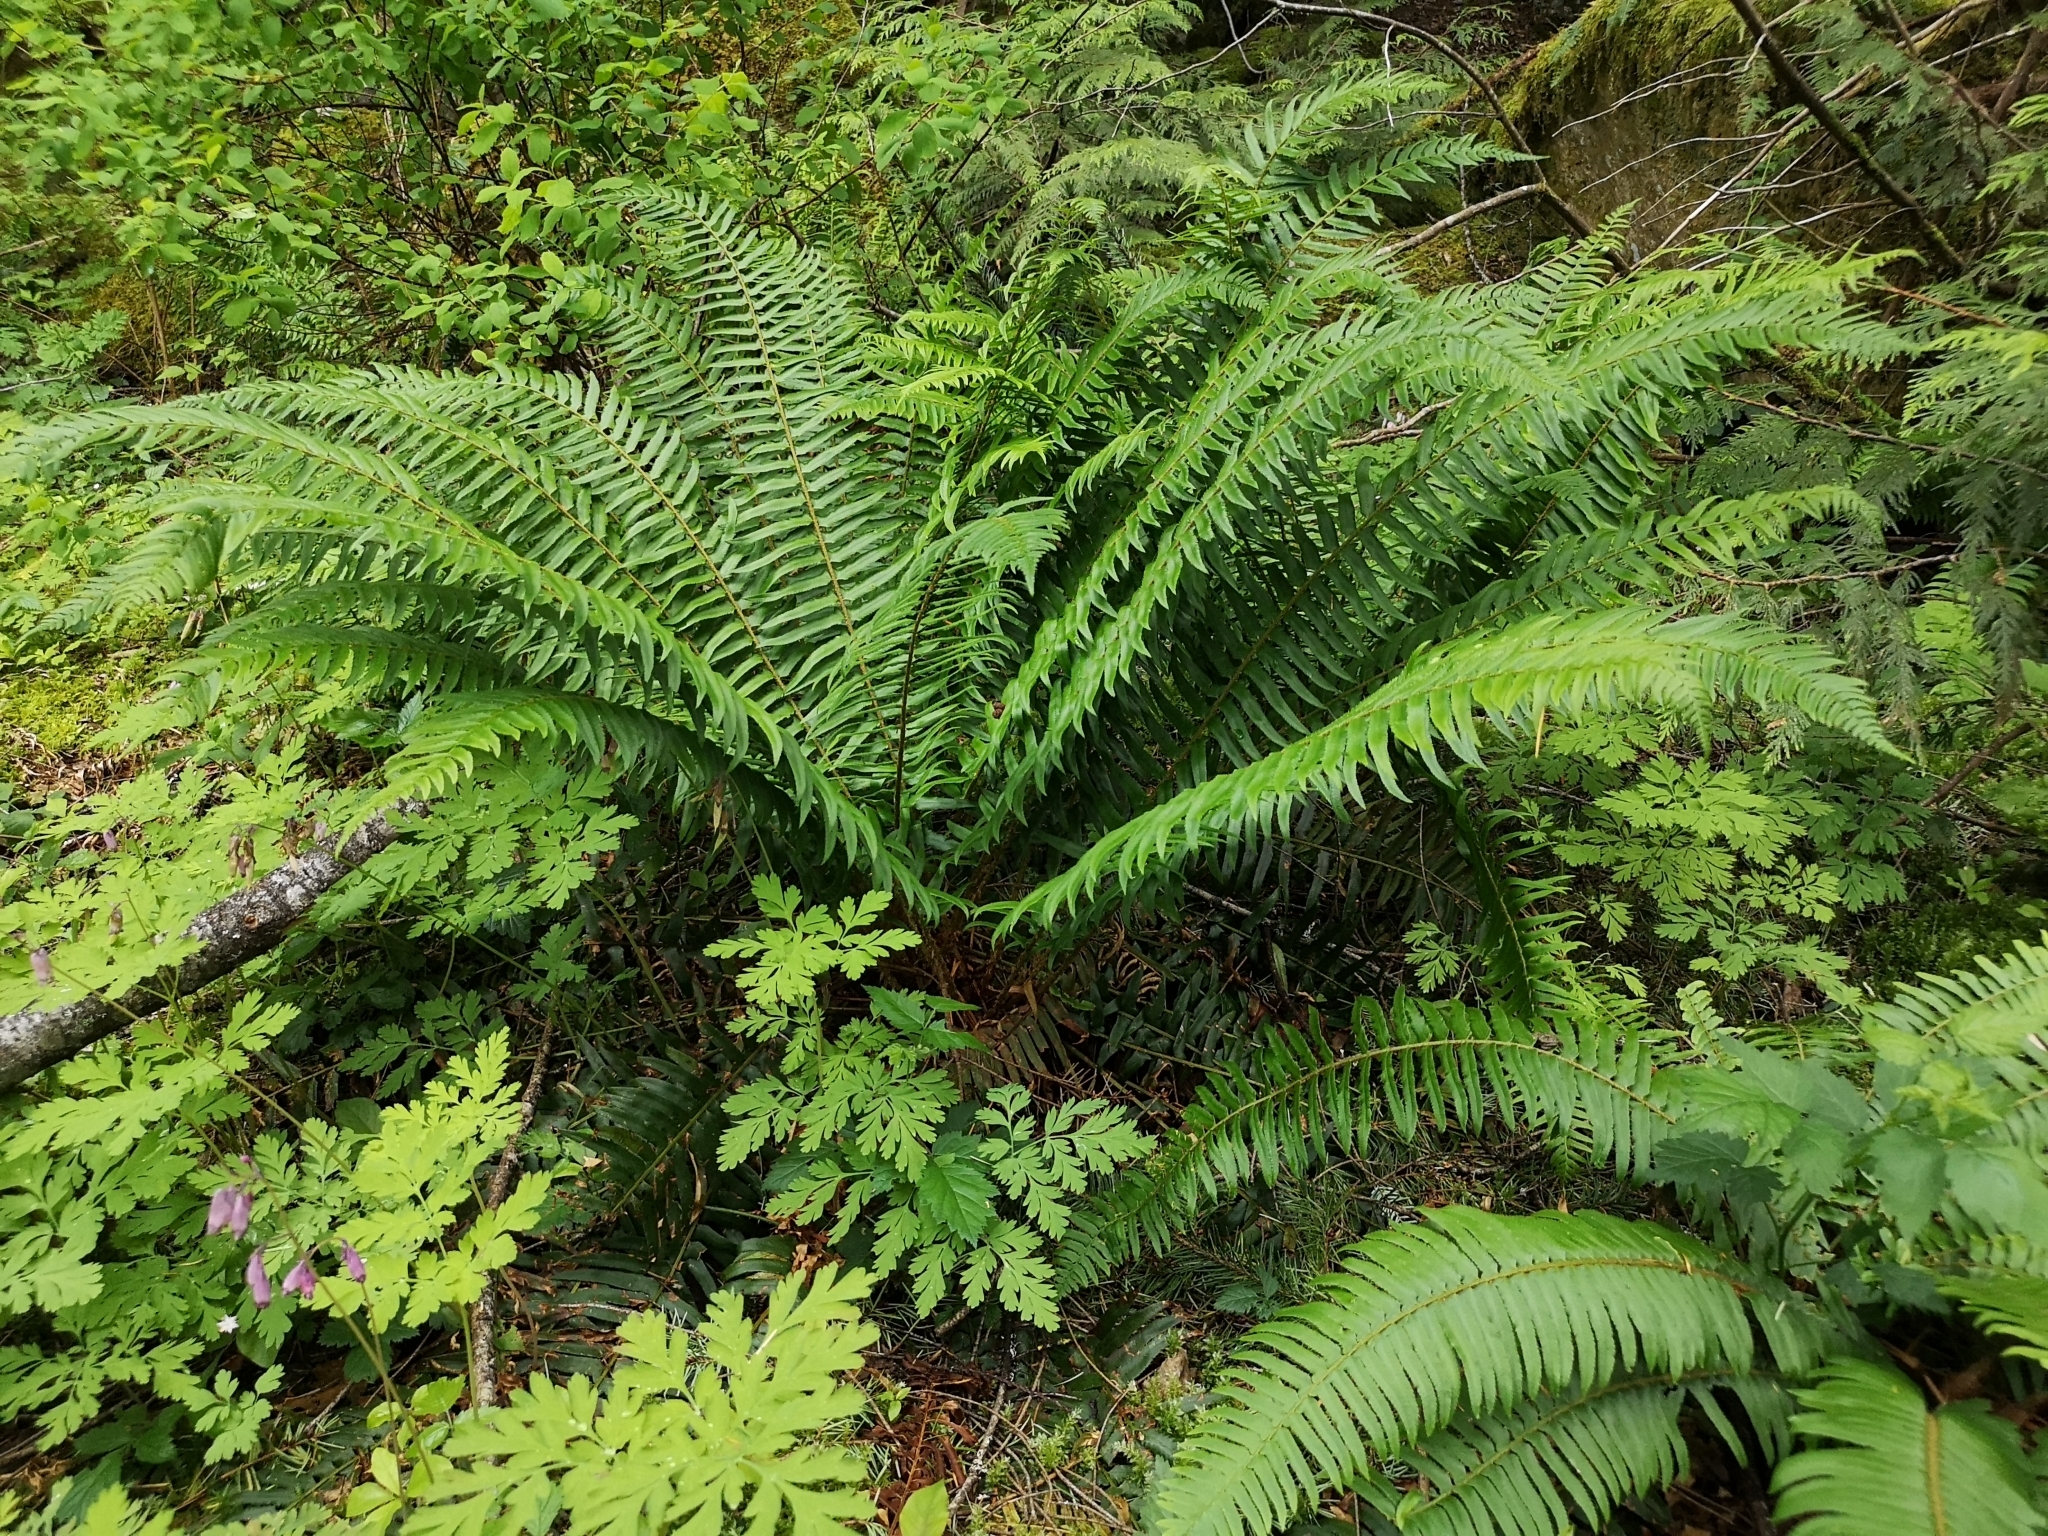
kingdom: Plantae
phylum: Tracheophyta
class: Polypodiopsida
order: Polypodiales
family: Dryopteridaceae
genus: Polystichum
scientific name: Polystichum munitum
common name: Western sword-fern
